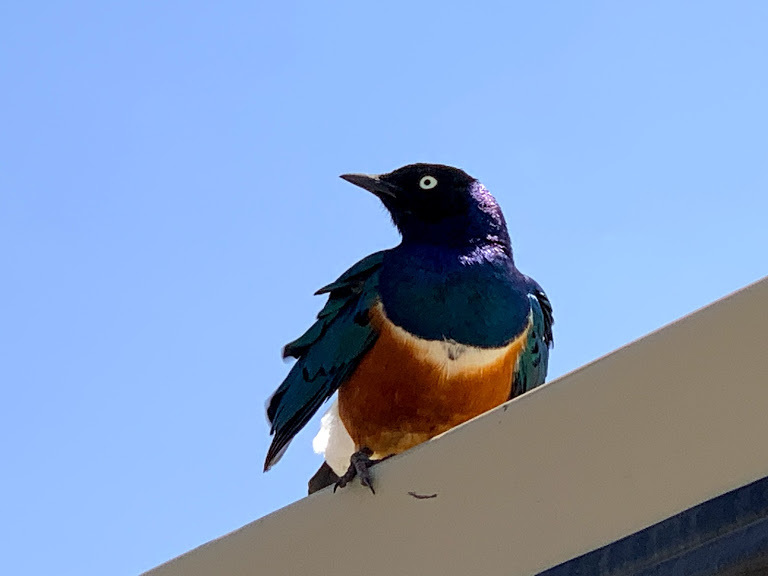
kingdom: Animalia
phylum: Chordata
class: Aves
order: Passeriformes
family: Sturnidae
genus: Lamprotornis
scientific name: Lamprotornis superbus
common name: Superb starling
